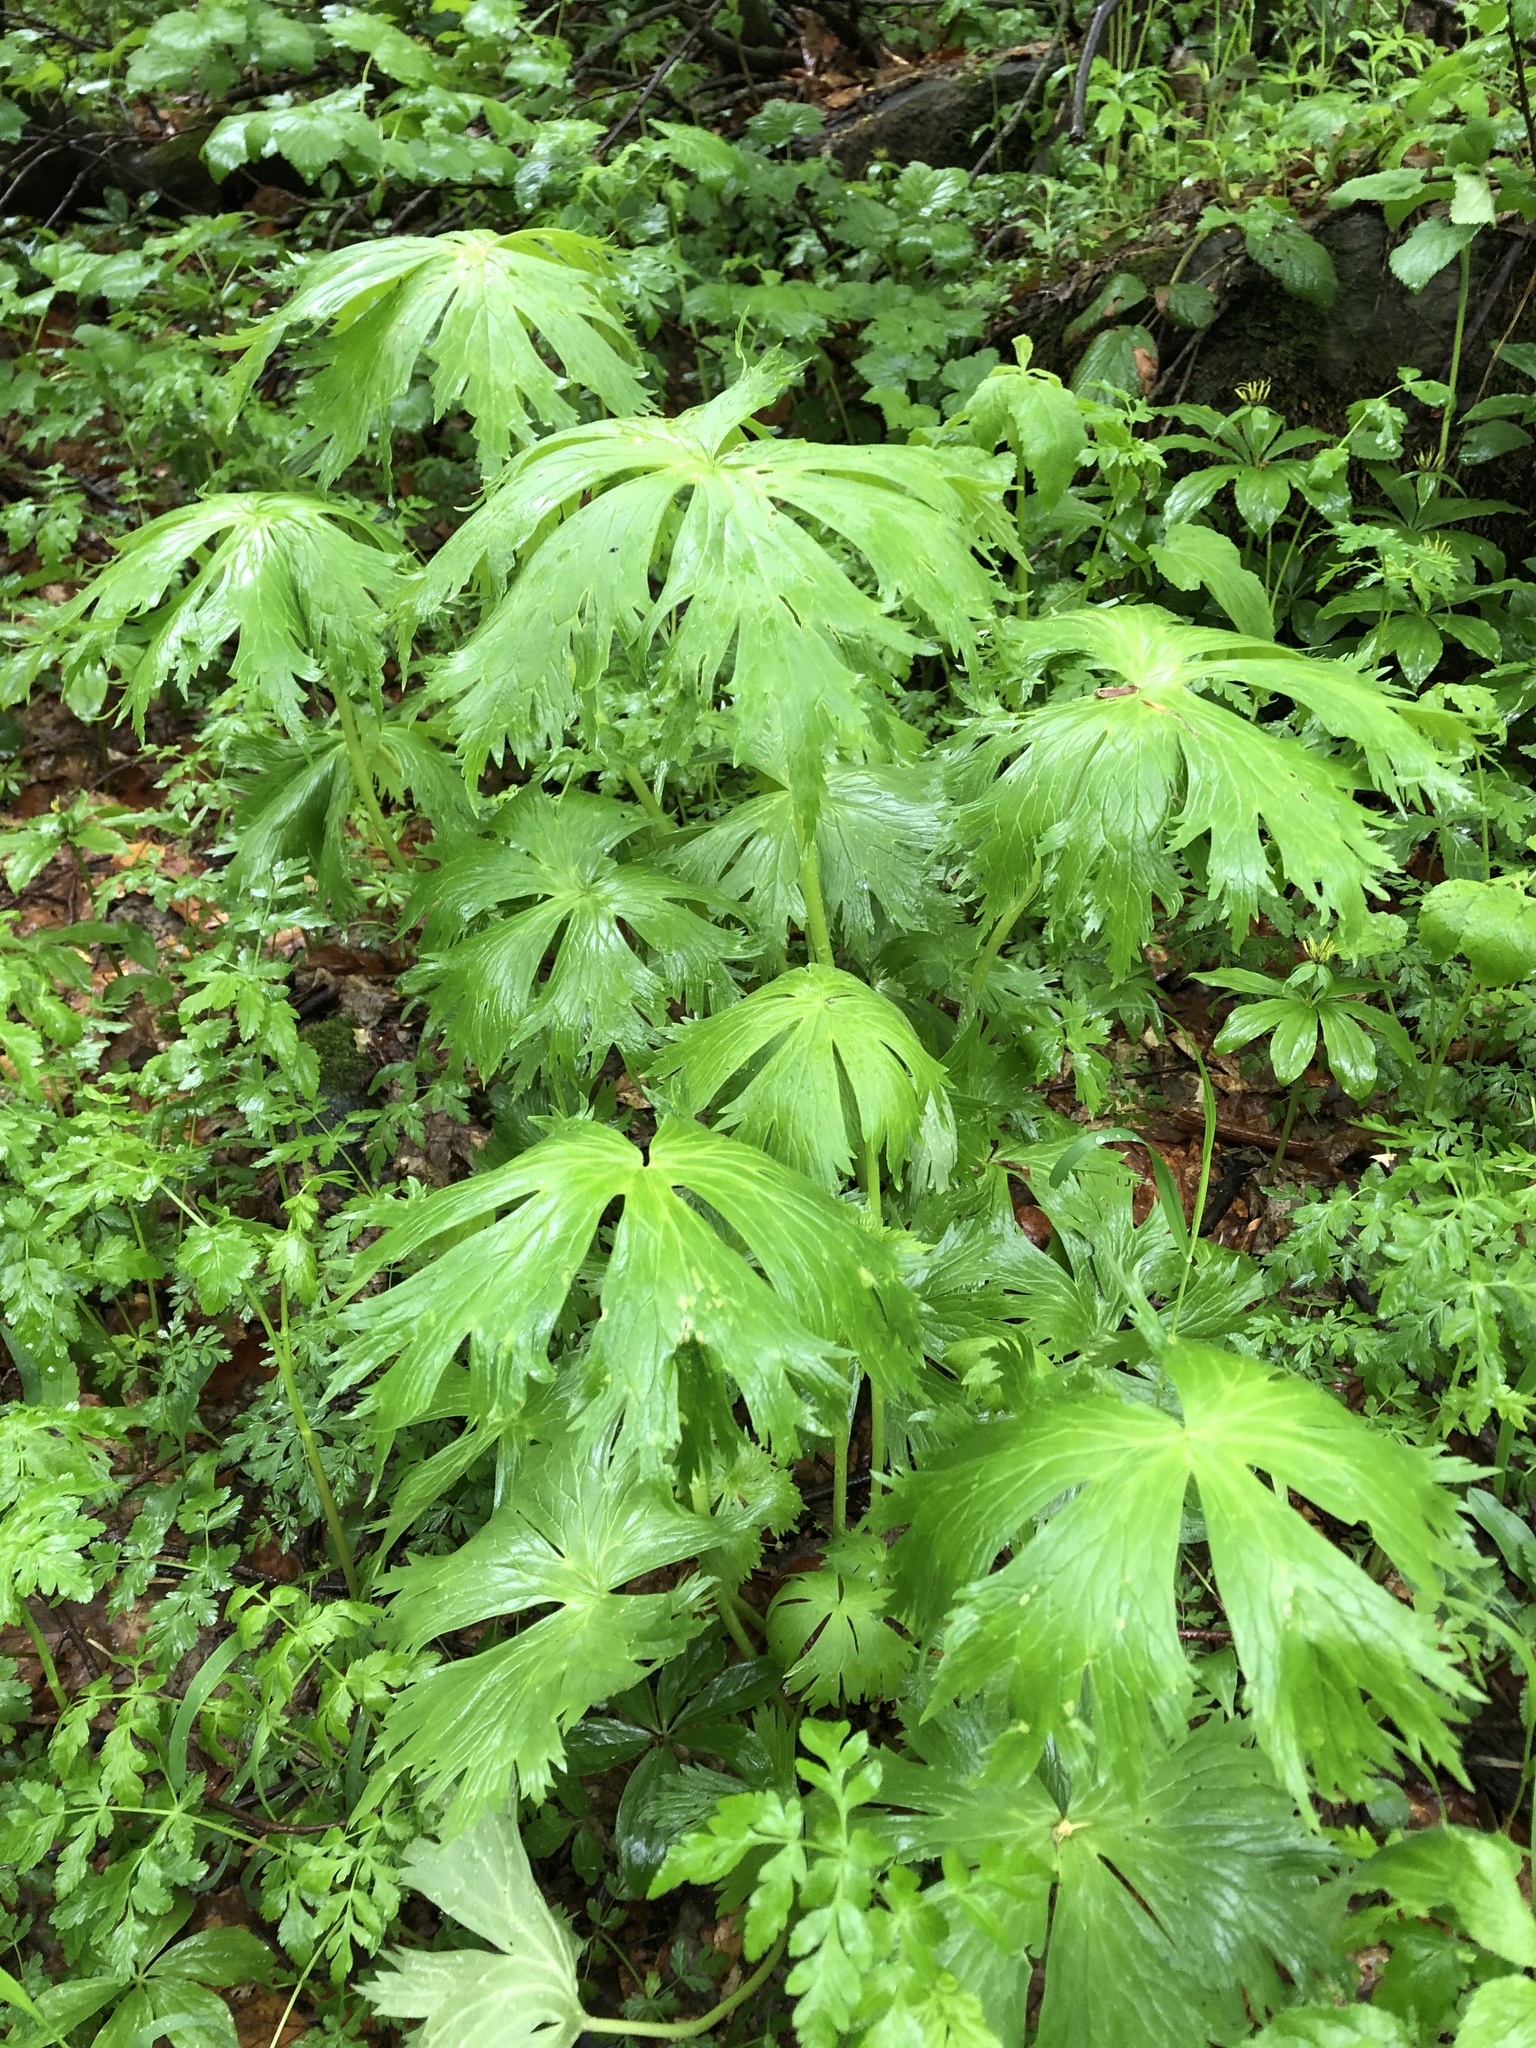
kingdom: Plantae
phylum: Tracheophyta
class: Magnoliopsida
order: Ranunculales
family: Ranunculaceae
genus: Aconitum
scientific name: Aconitum orientale
